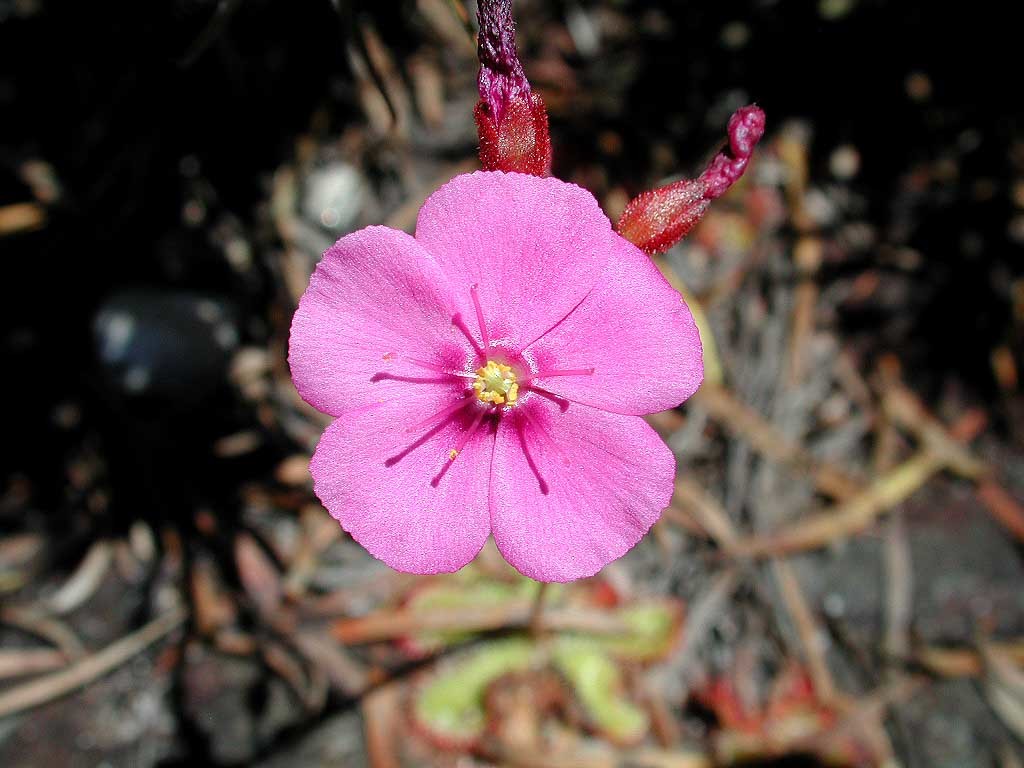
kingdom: Plantae
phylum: Tracheophyta
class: Magnoliopsida
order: Caryophyllales
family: Droseraceae
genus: Drosera
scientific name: Drosera cuneifolia
